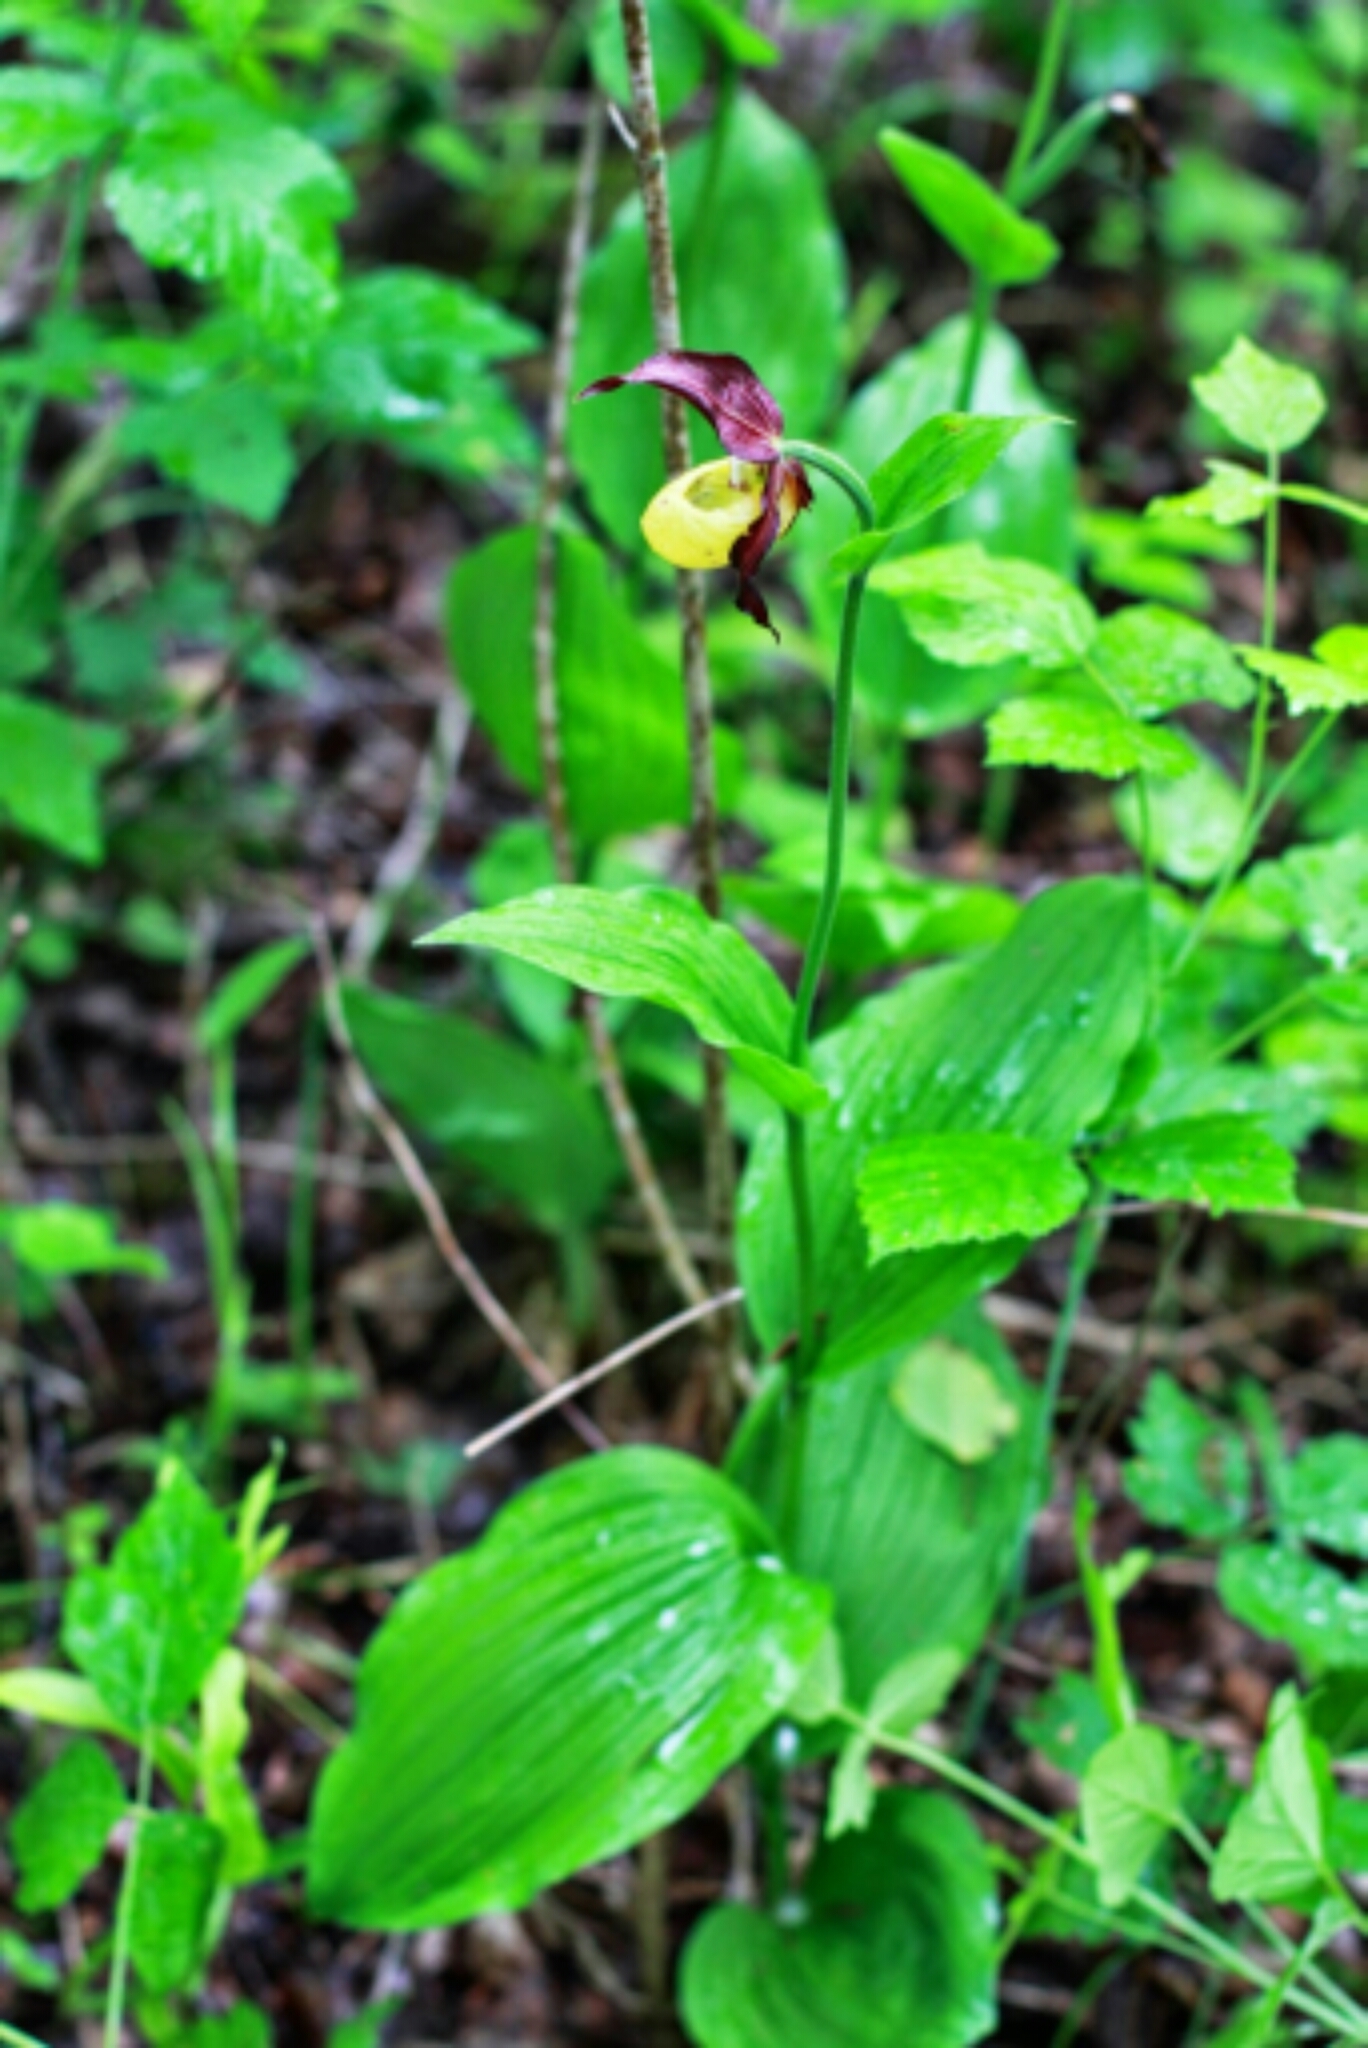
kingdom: Plantae
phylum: Tracheophyta
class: Liliopsida
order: Asparagales
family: Orchidaceae
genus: Cypripedium
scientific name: Cypripedium calceolus
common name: Lady's-slipper
